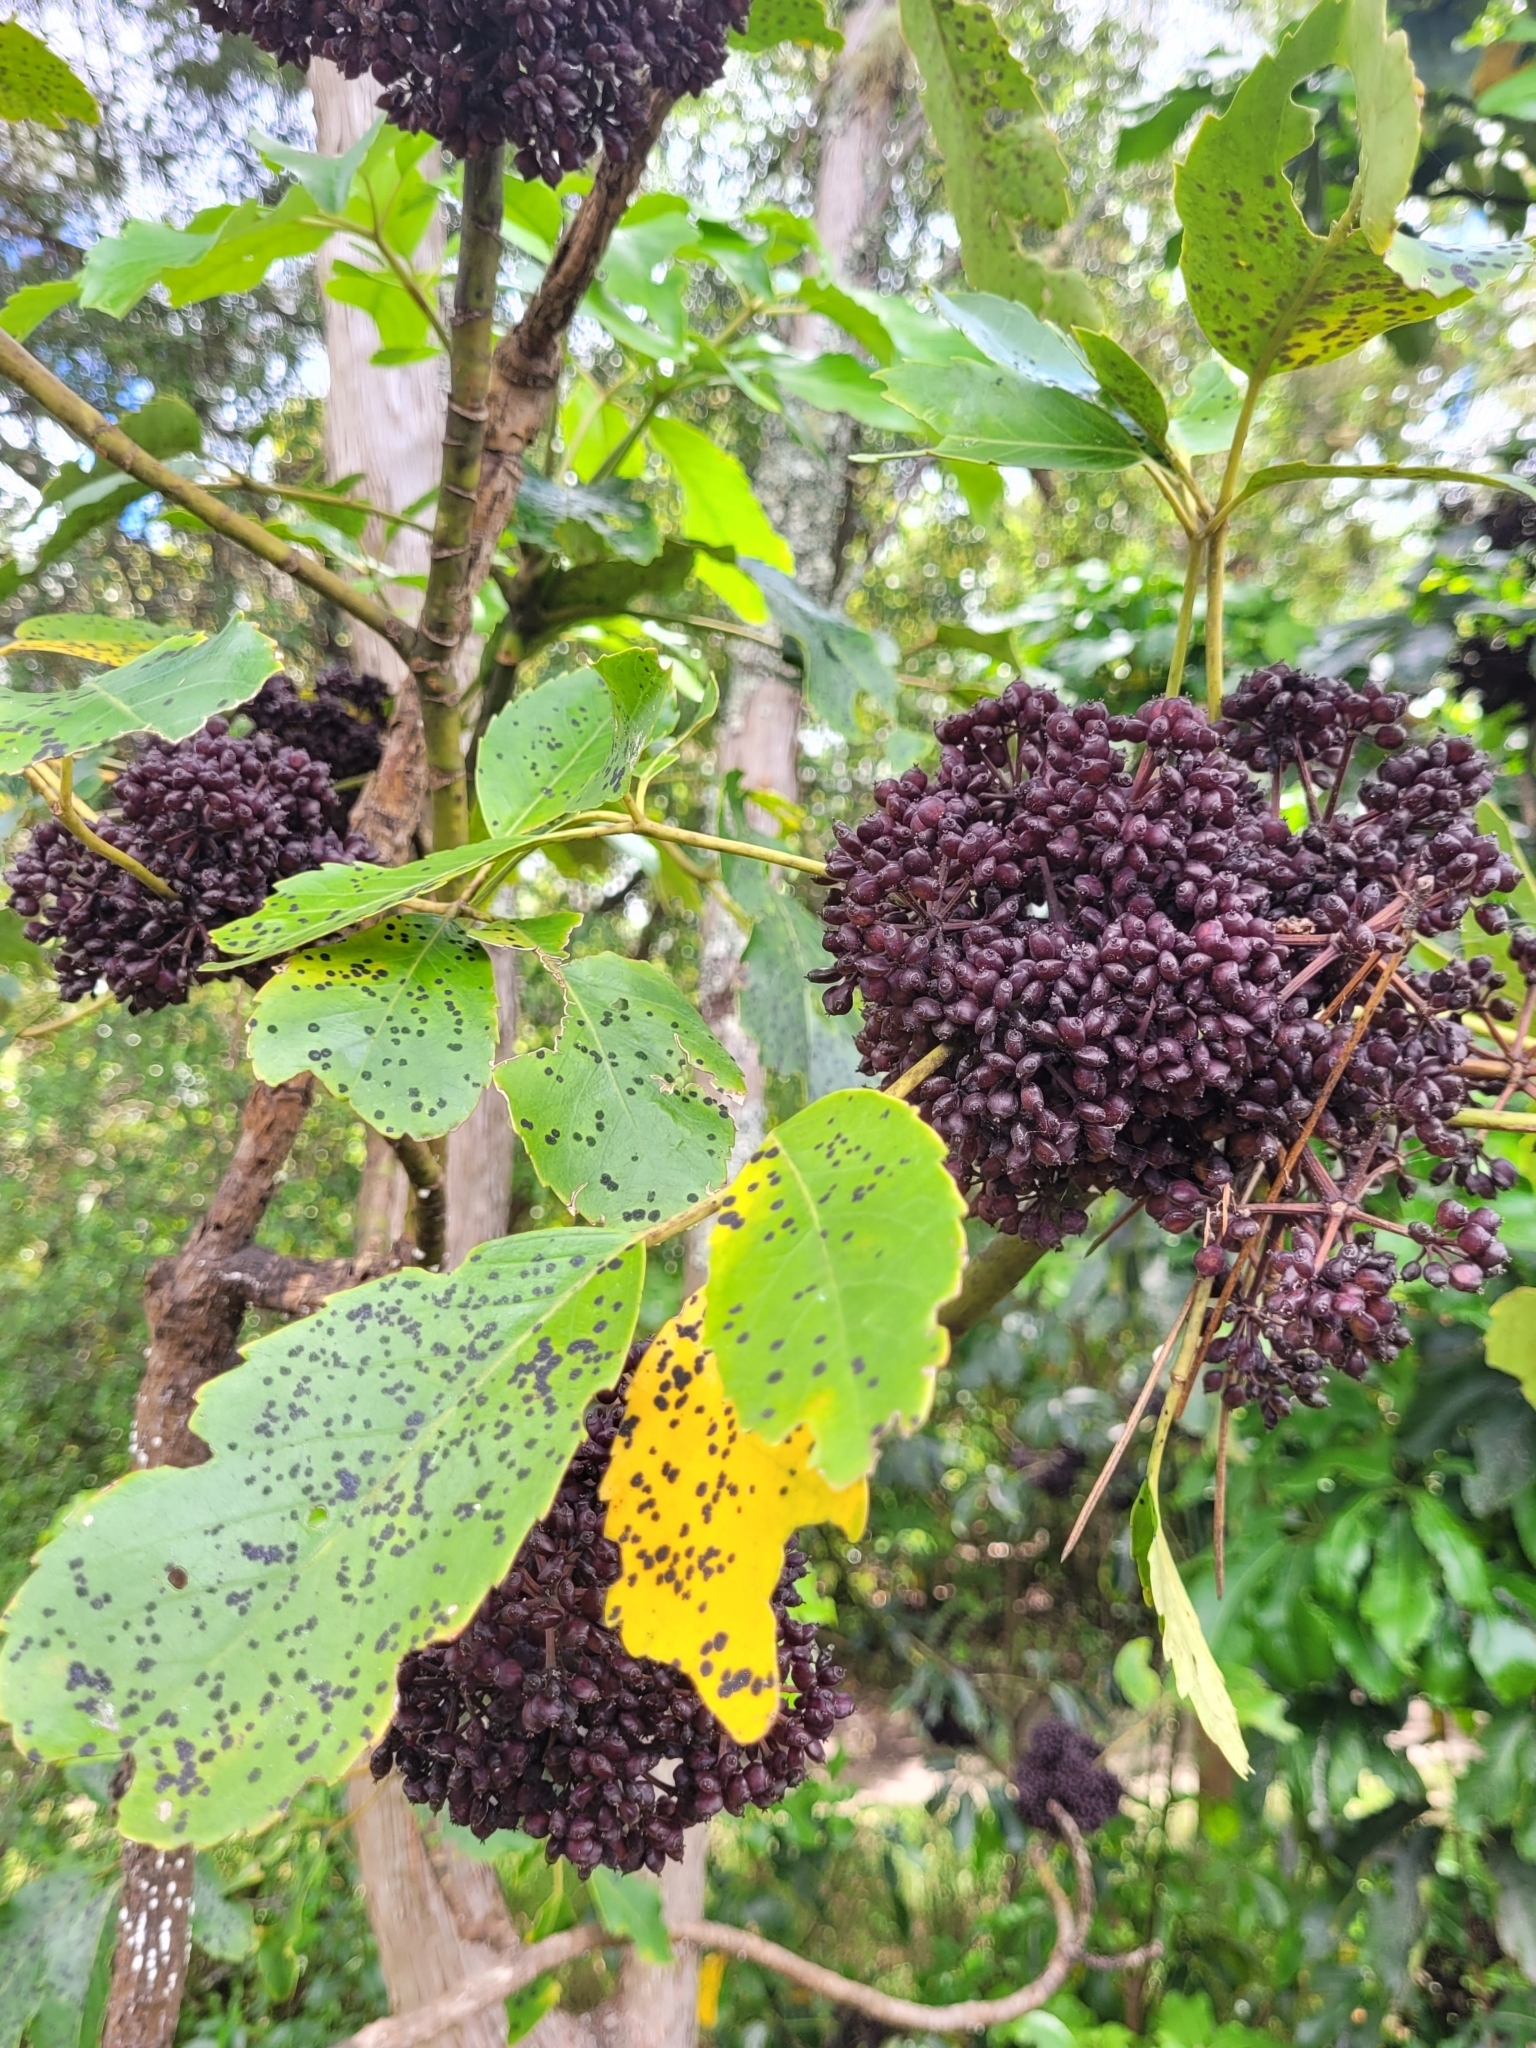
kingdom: Plantae
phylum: Tracheophyta
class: Magnoliopsida
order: Apiales
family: Araliaceae
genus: Neopanax
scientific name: Neopanax arboreus
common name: Five-fingers
